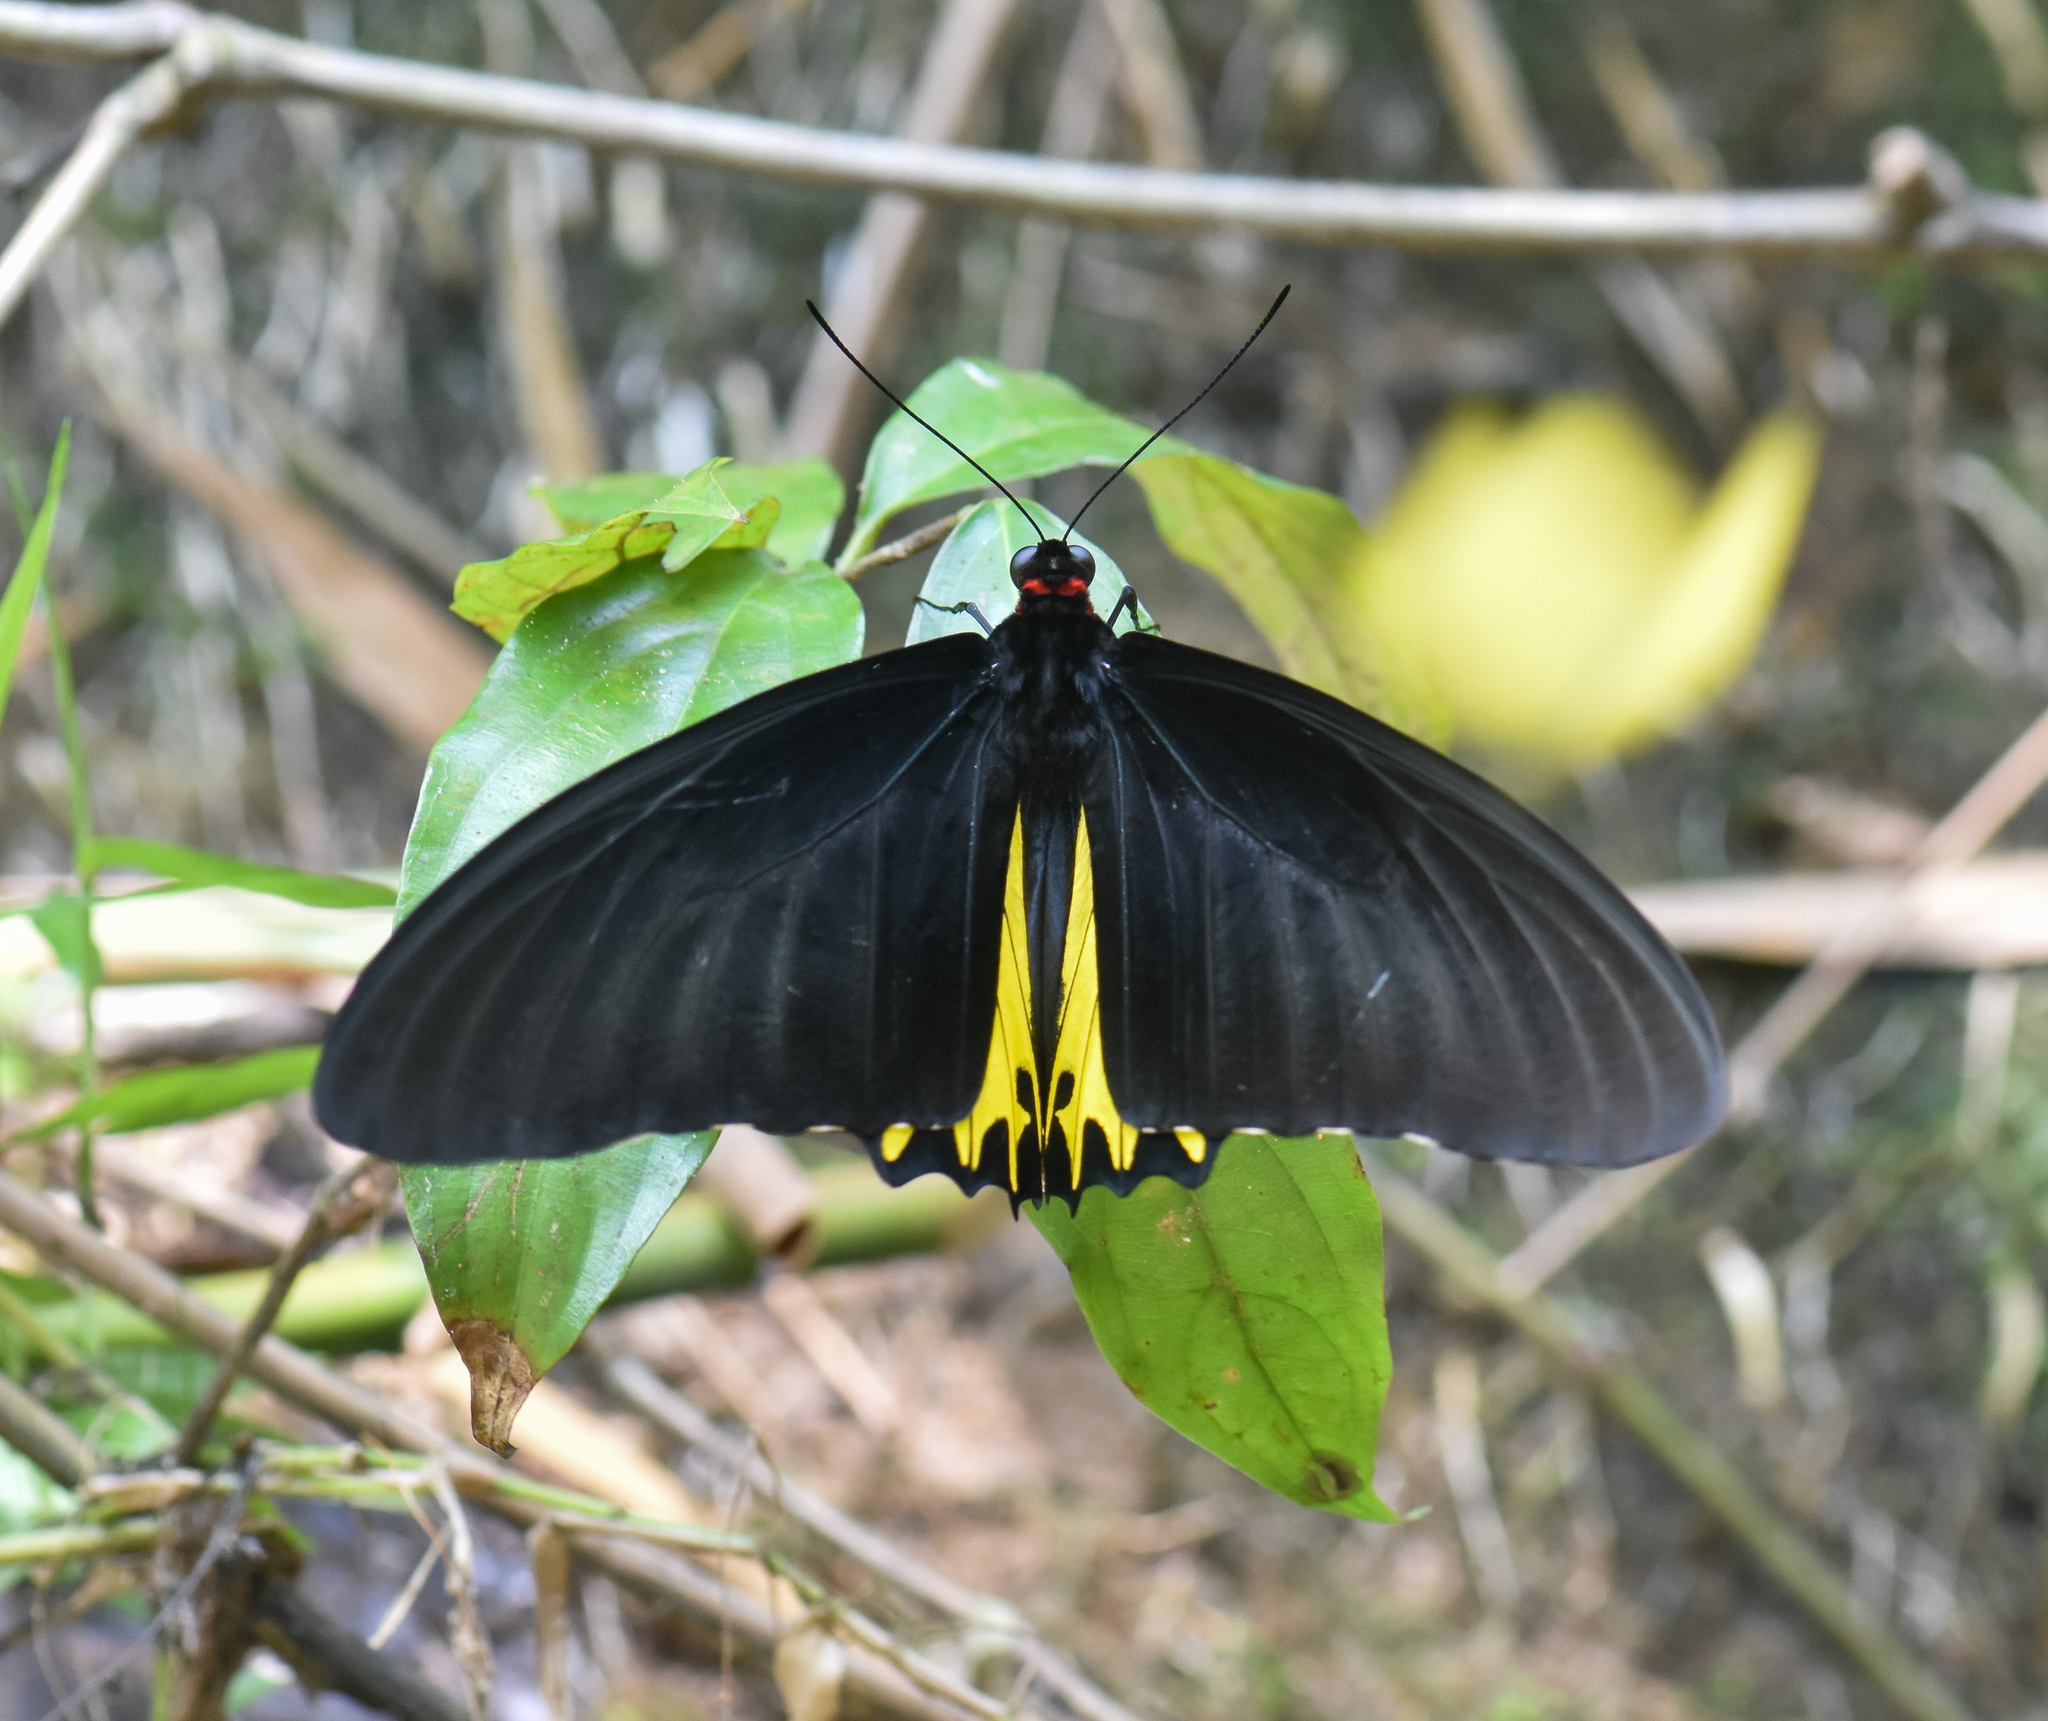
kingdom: Animalia
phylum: Arthropoda
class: Insecta
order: Lepidoptera
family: Papilionidae
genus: Troides
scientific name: Troides helena
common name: Common birdwing
